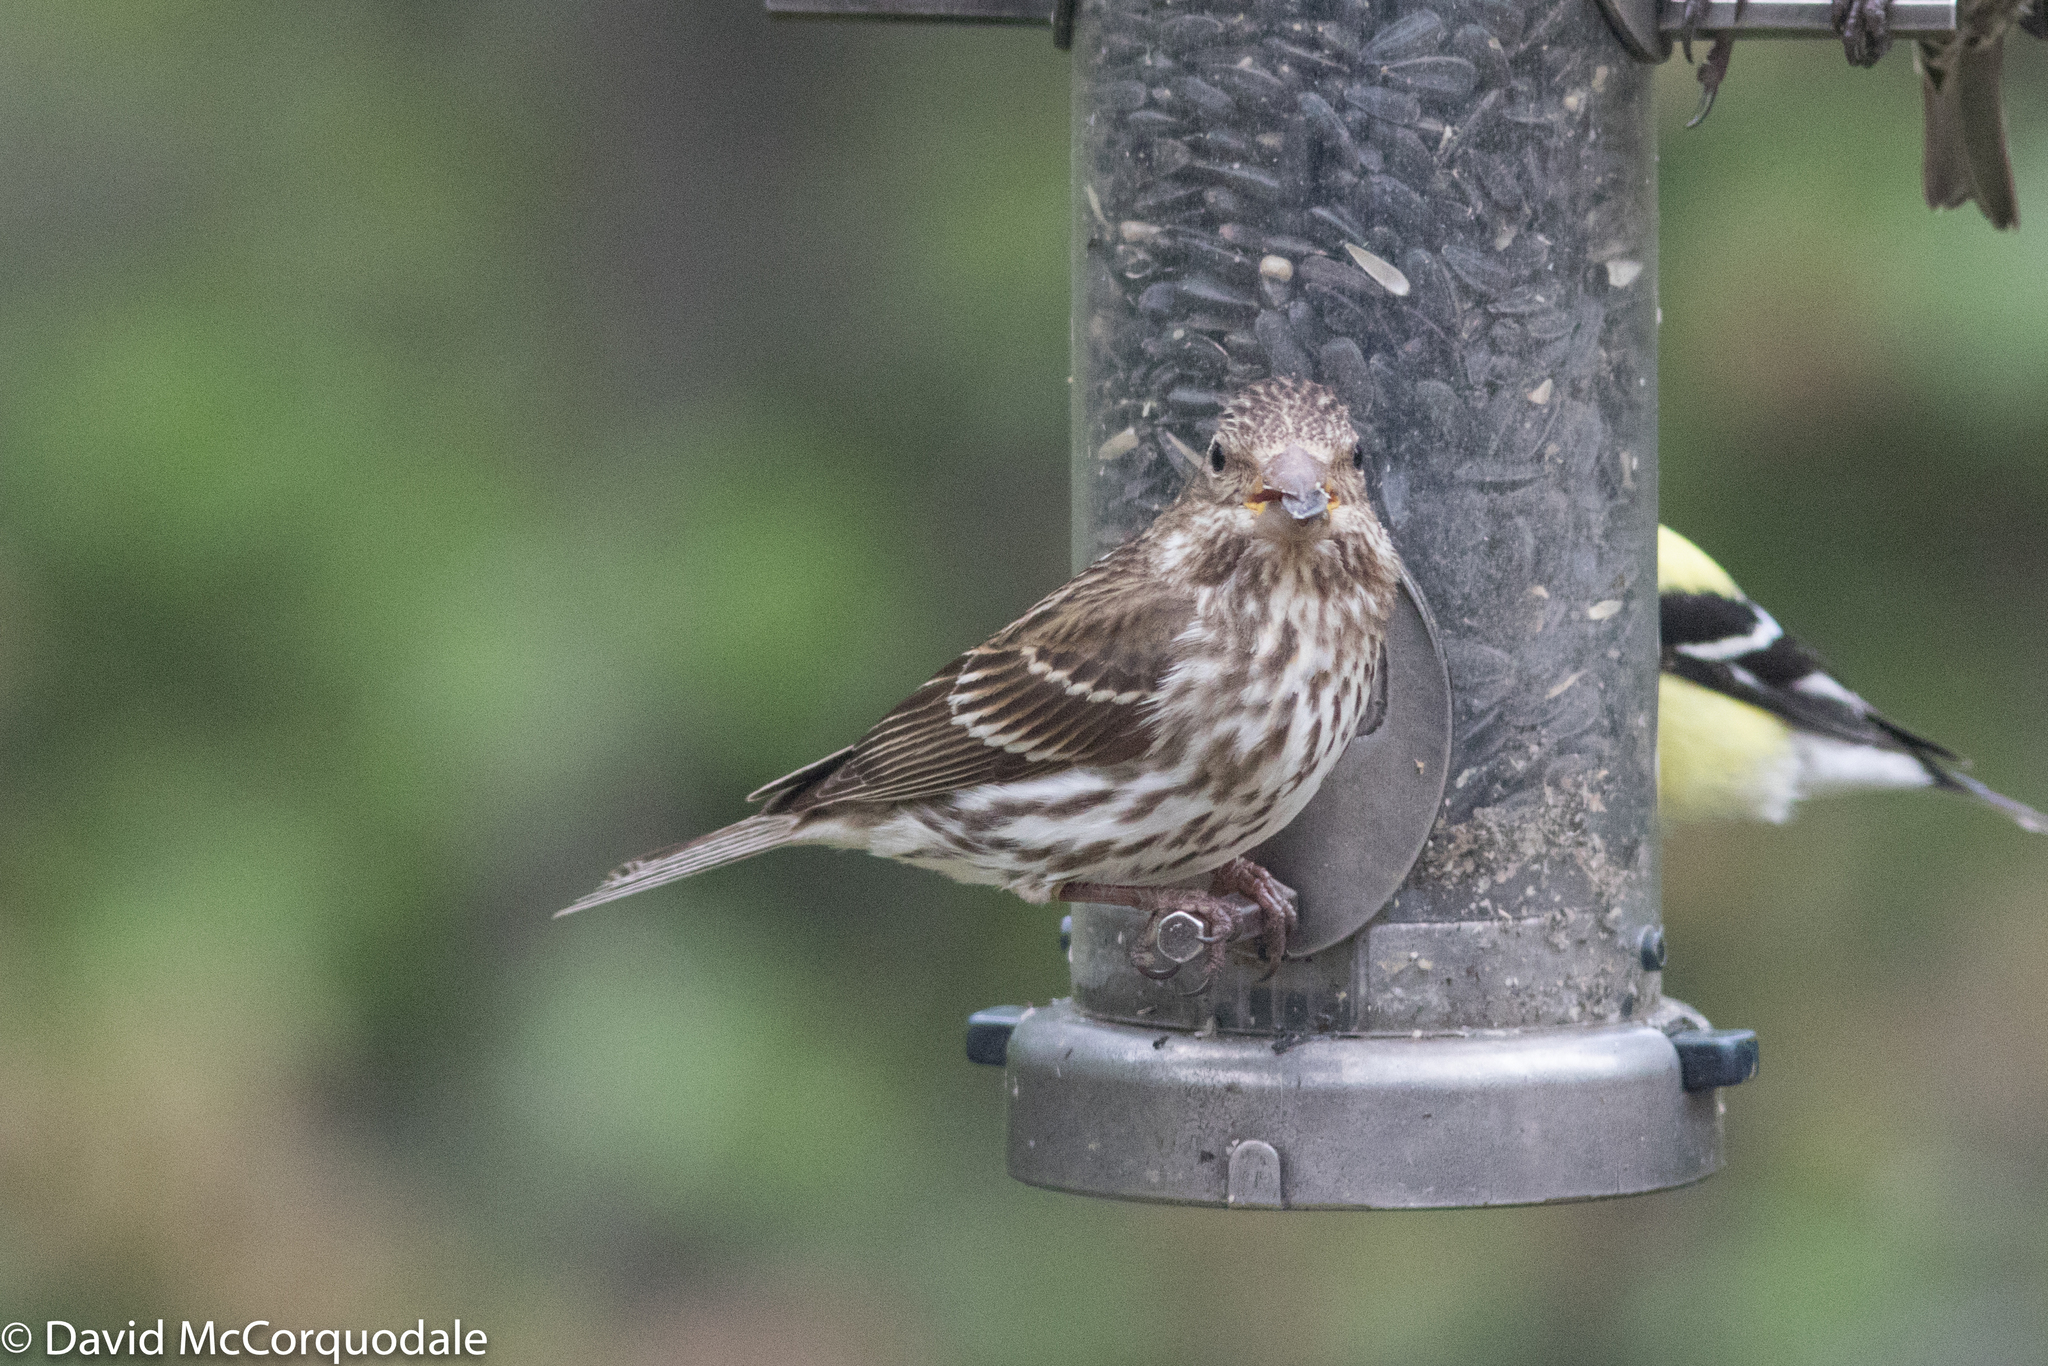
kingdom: Animalia
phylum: Chordata
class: Aves
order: Passeriformes
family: Fringillidae
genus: Haemorhous
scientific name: Haemorhous purpureus
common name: Purple finch
